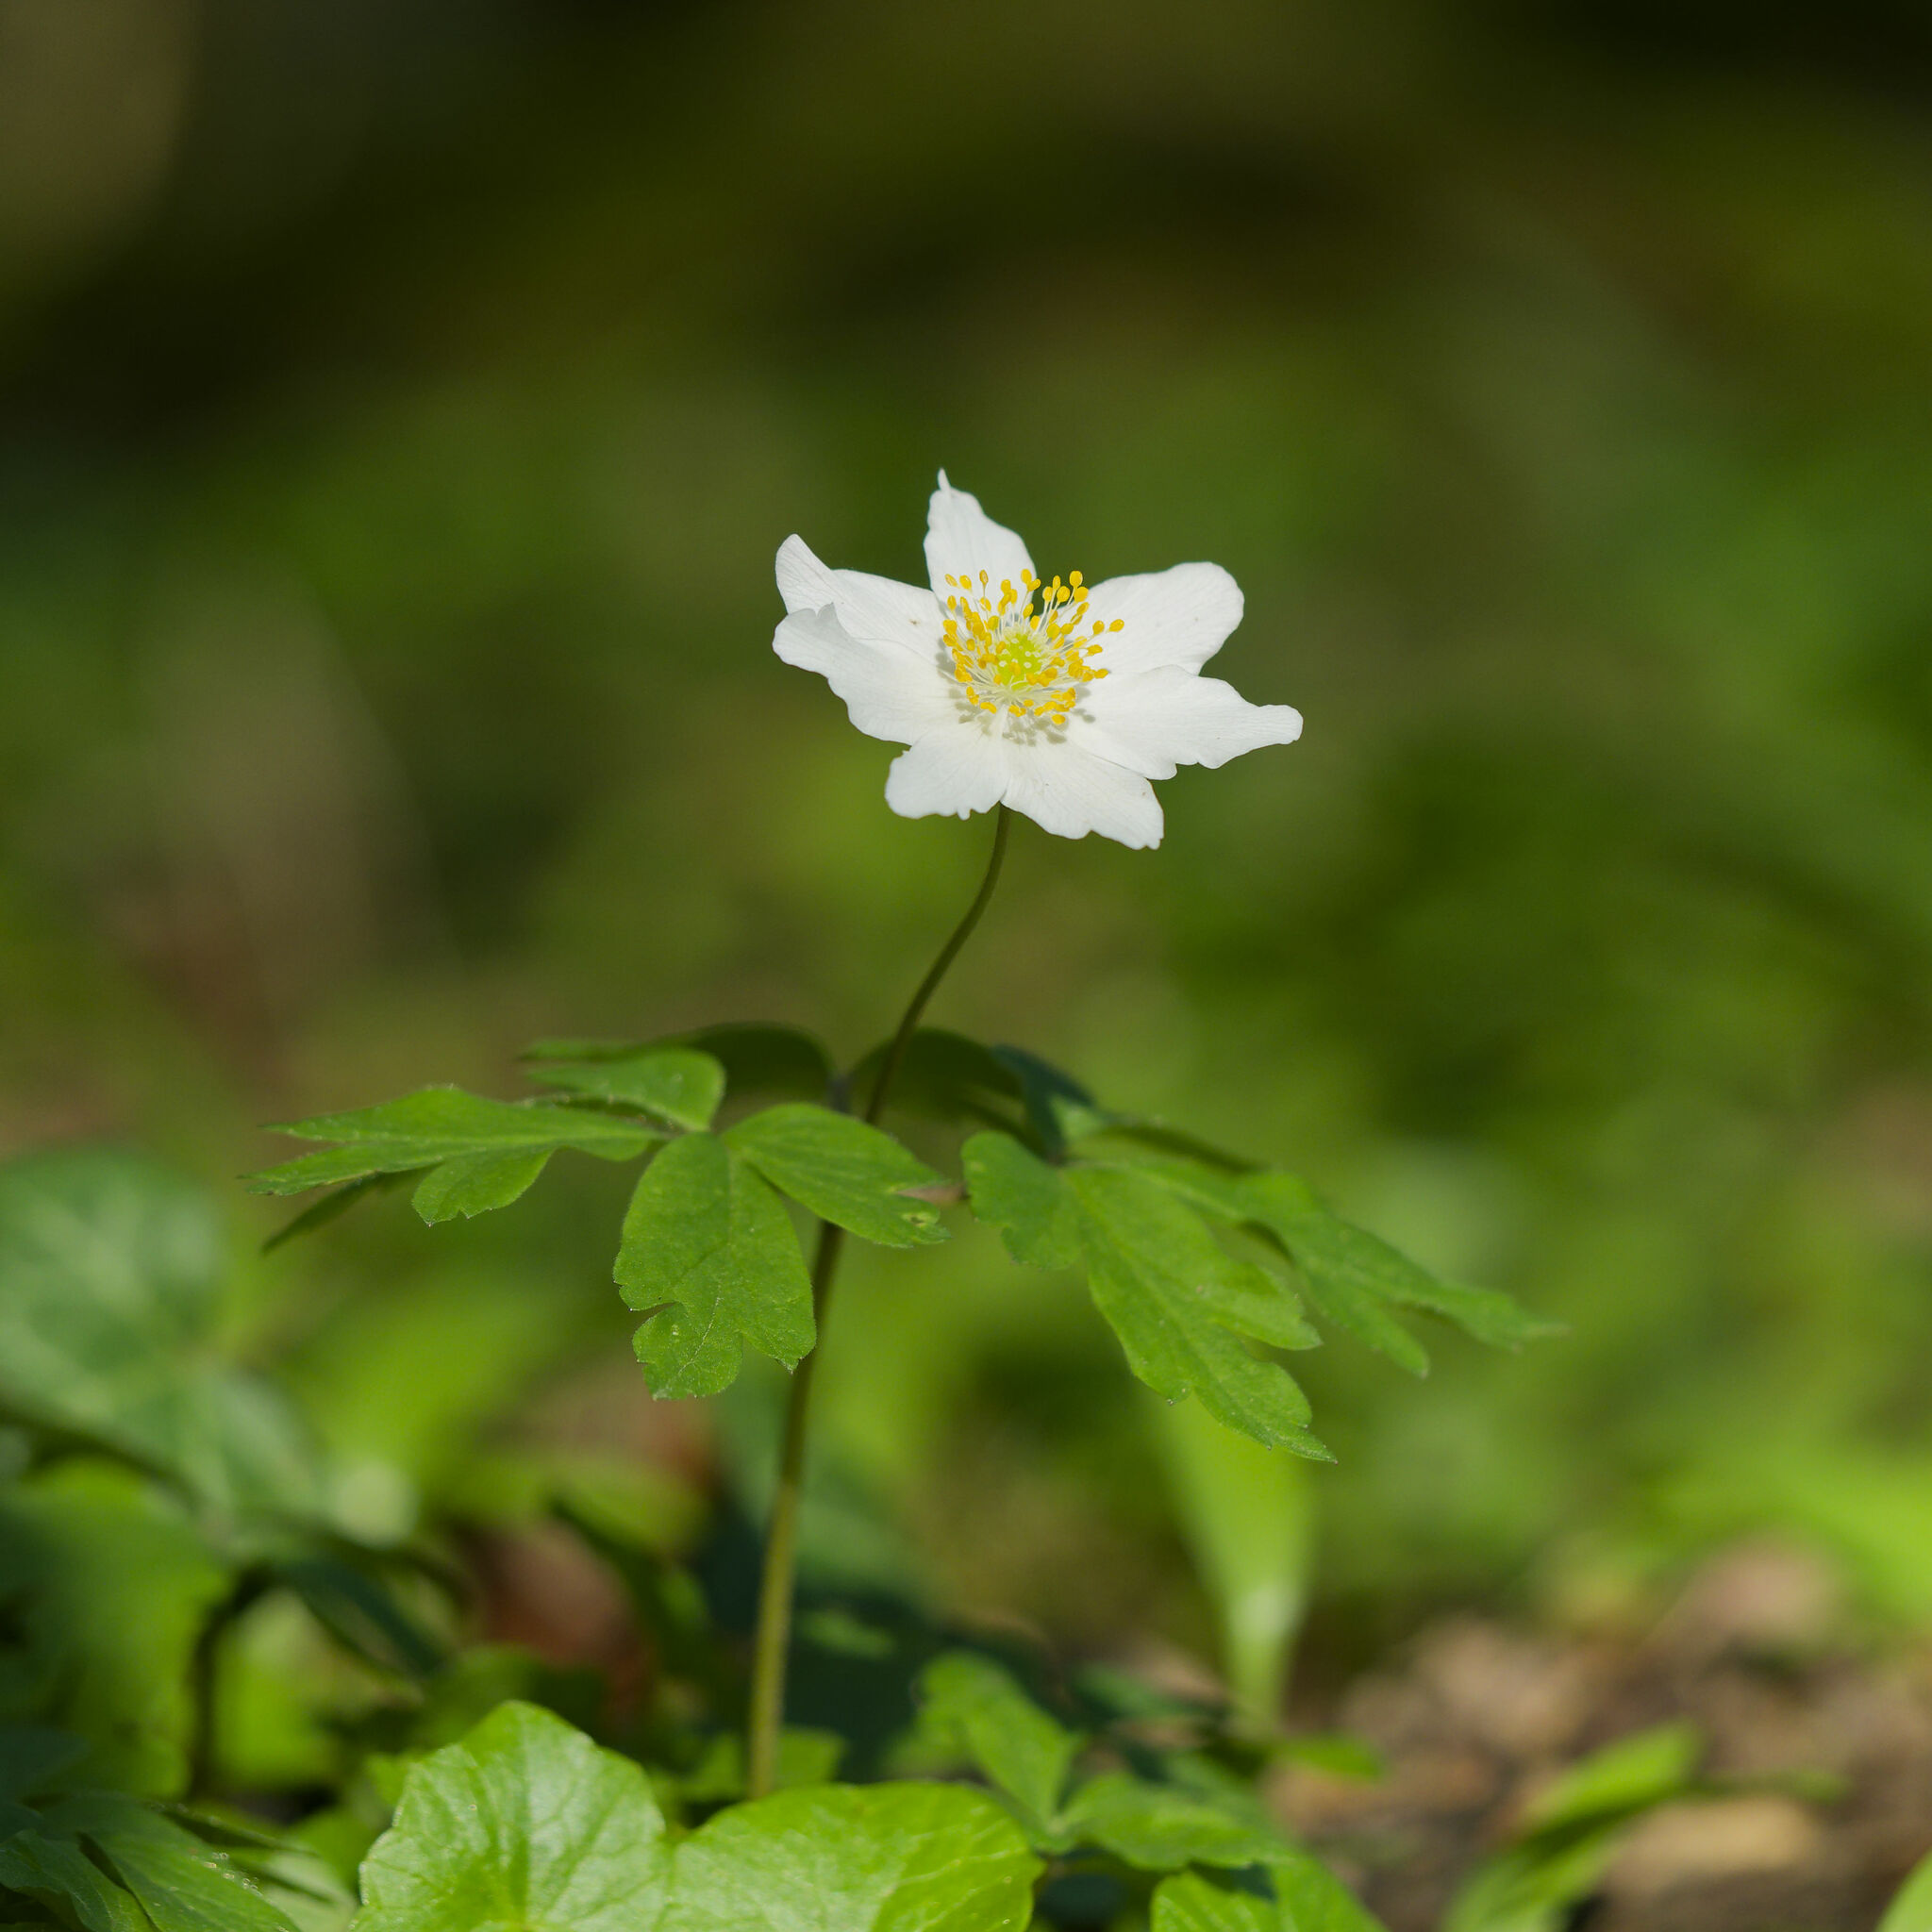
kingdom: Plantae
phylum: Tracheophyta
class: Magnoliopsida
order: Ranunculales
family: Ranunculaceae
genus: Anemone
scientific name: Anemone nemorosa
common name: Wood anemone
